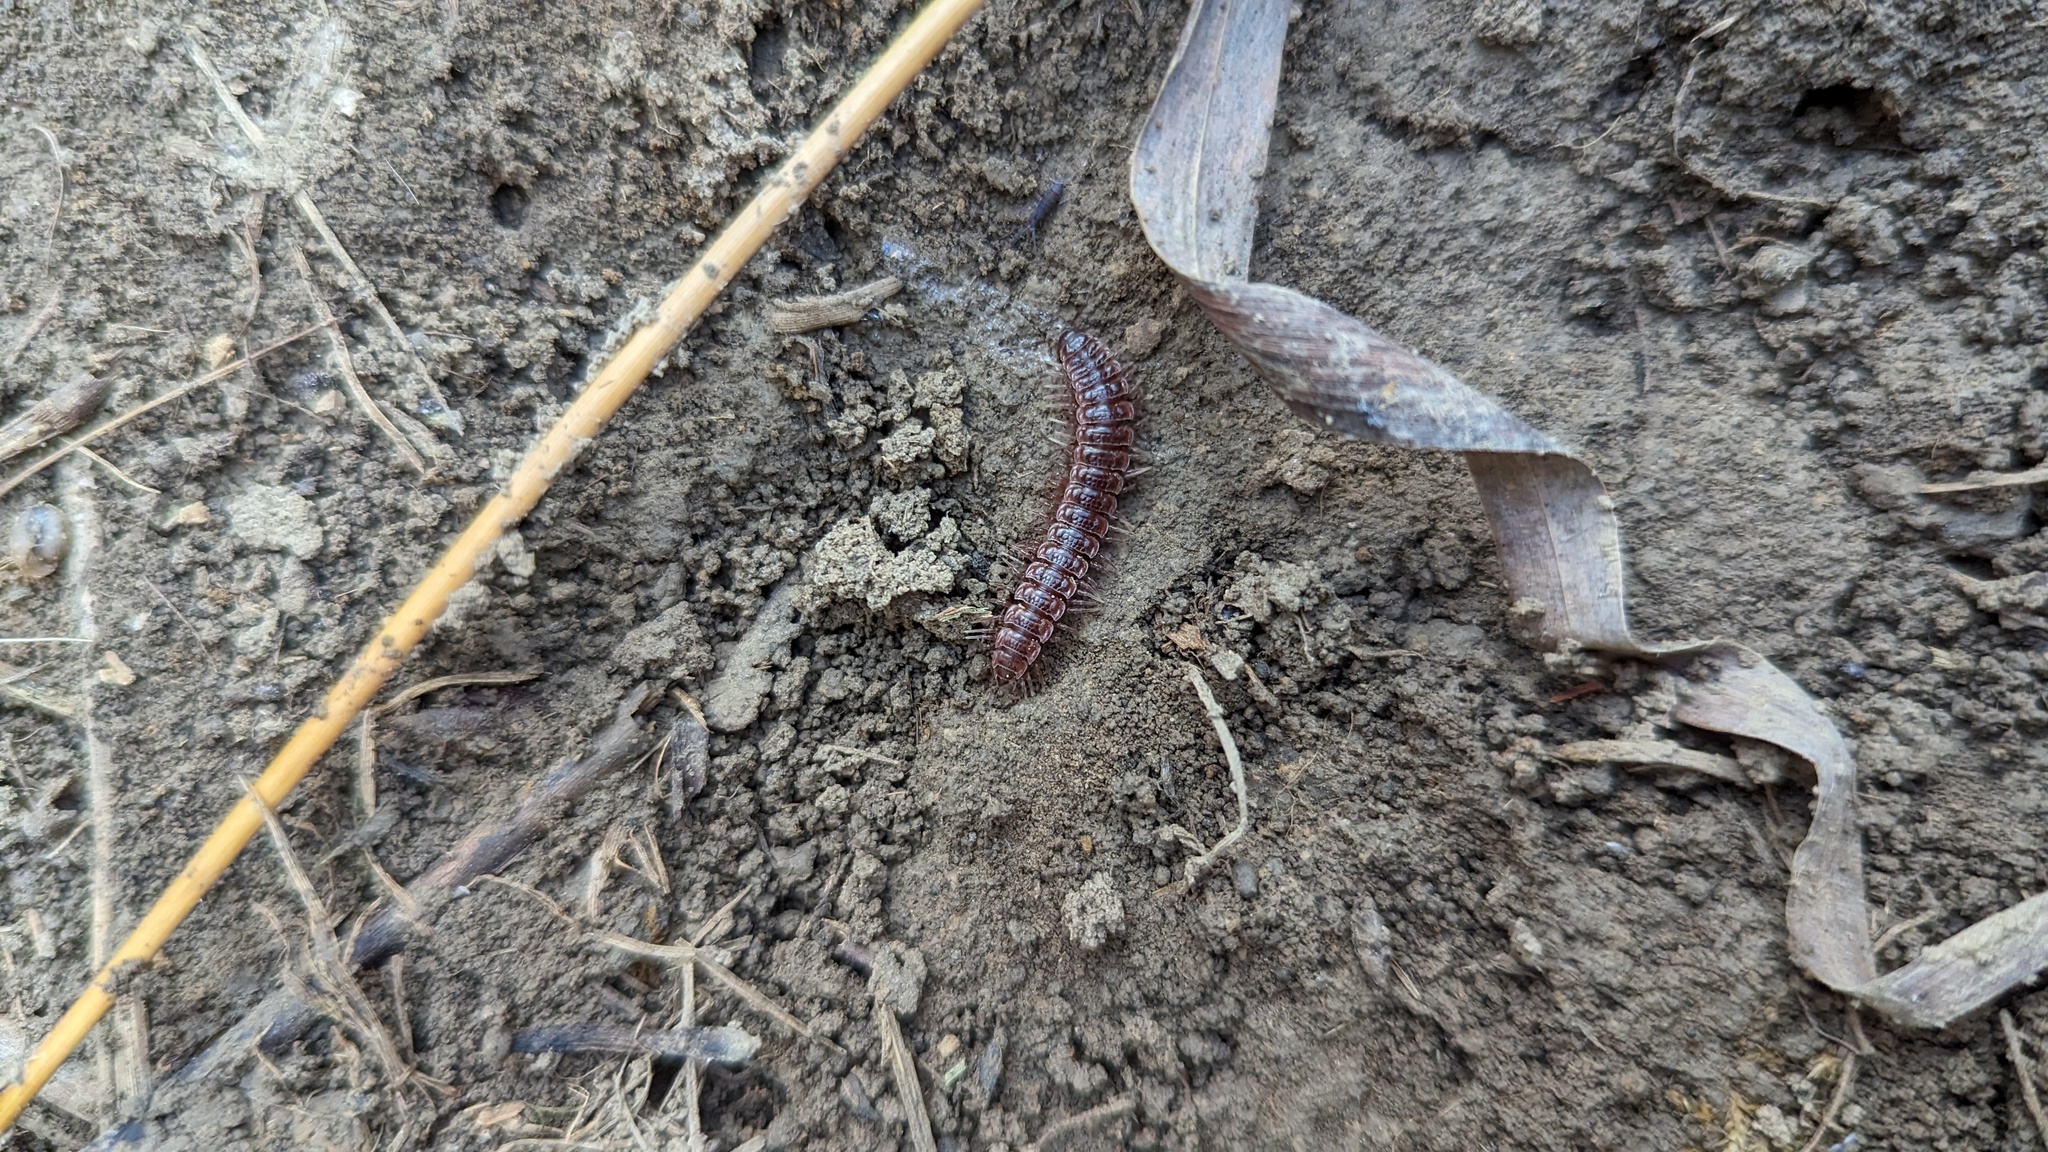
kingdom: Animalia
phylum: Arthropoda
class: Diplopoda
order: Polydesmida
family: Polydesmidae
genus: Pseudopolydesmus
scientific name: Pseudopolydesmus serratus
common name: Common pink flat-back millipede
